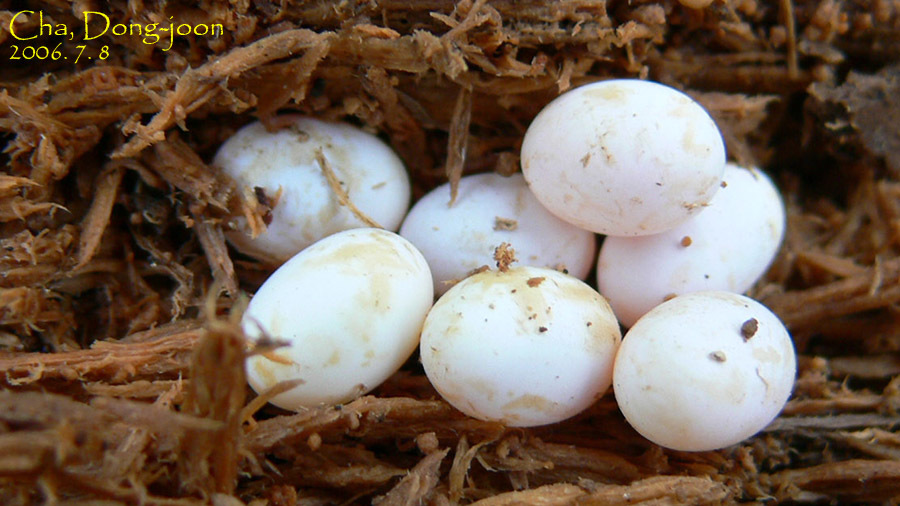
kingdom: Animalia
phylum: Chordata
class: Squamata
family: Scincidae
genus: Scincella
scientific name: Scincella vandenburghi
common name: Tsushima smooth skink
